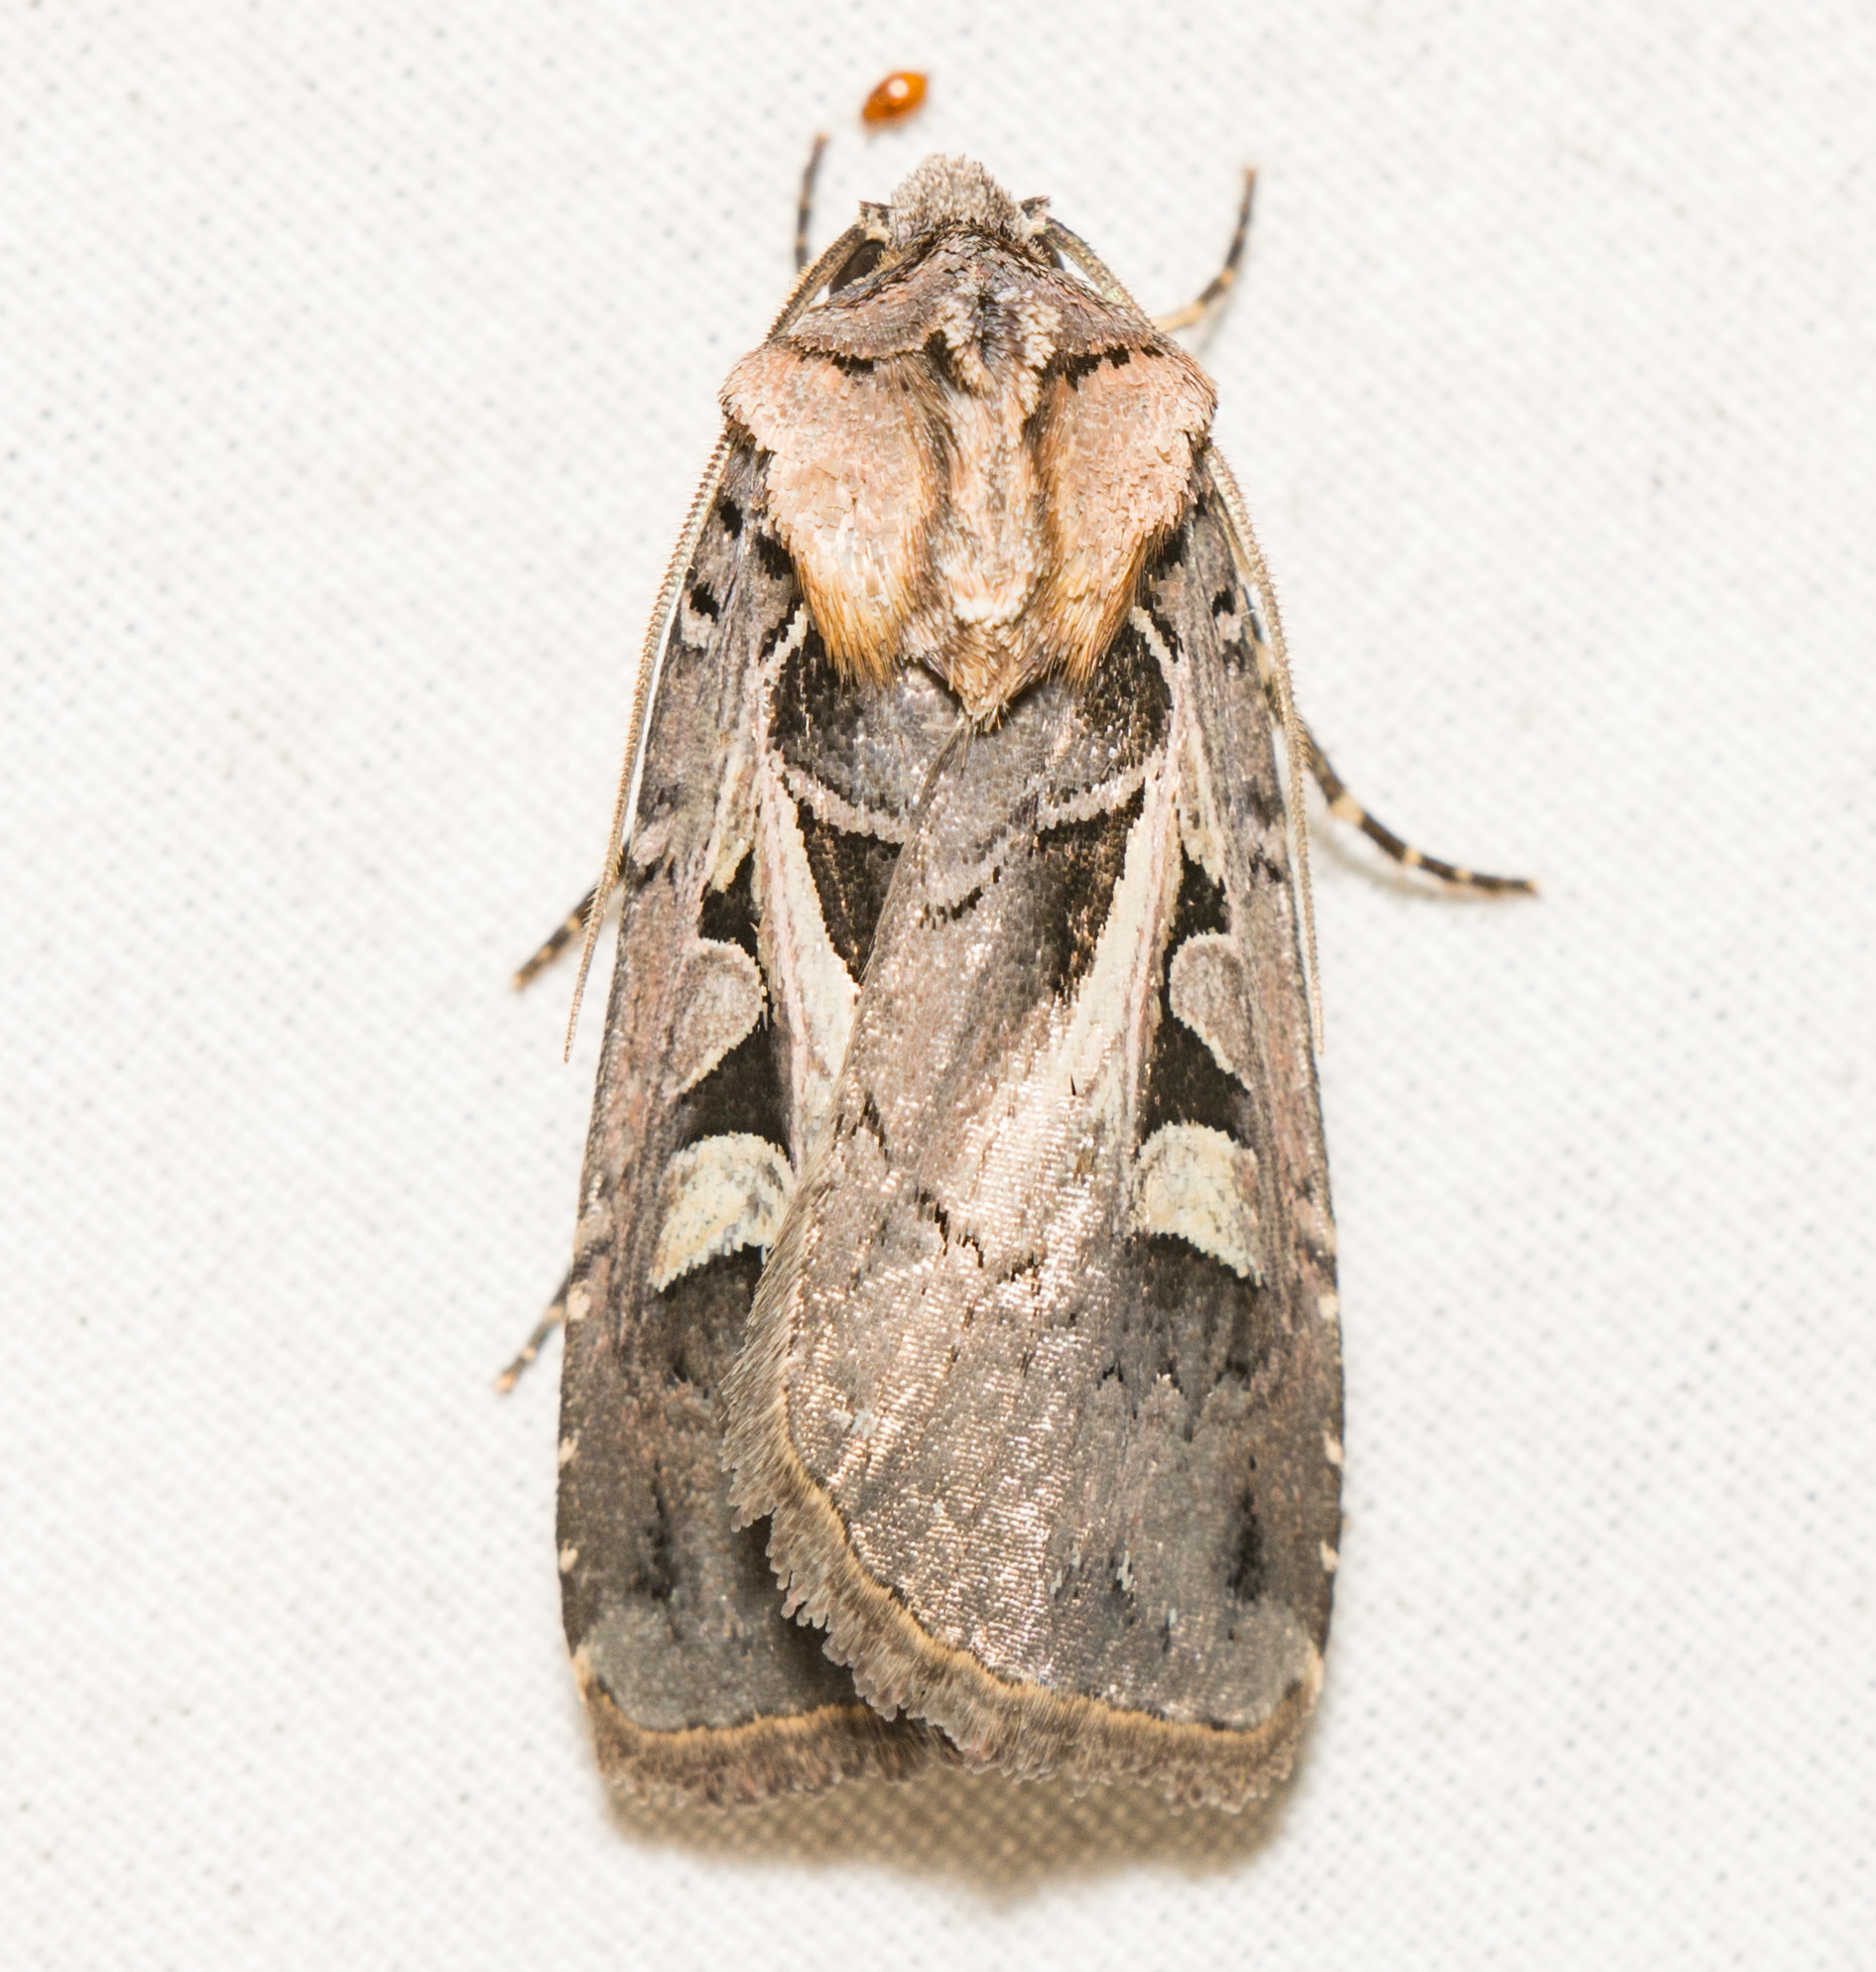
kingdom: Animalia
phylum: Arthropoda
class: Insecta
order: Lepidoptera
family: Noctuidae
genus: Feltia
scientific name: Feltia herilis
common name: Master's dart
